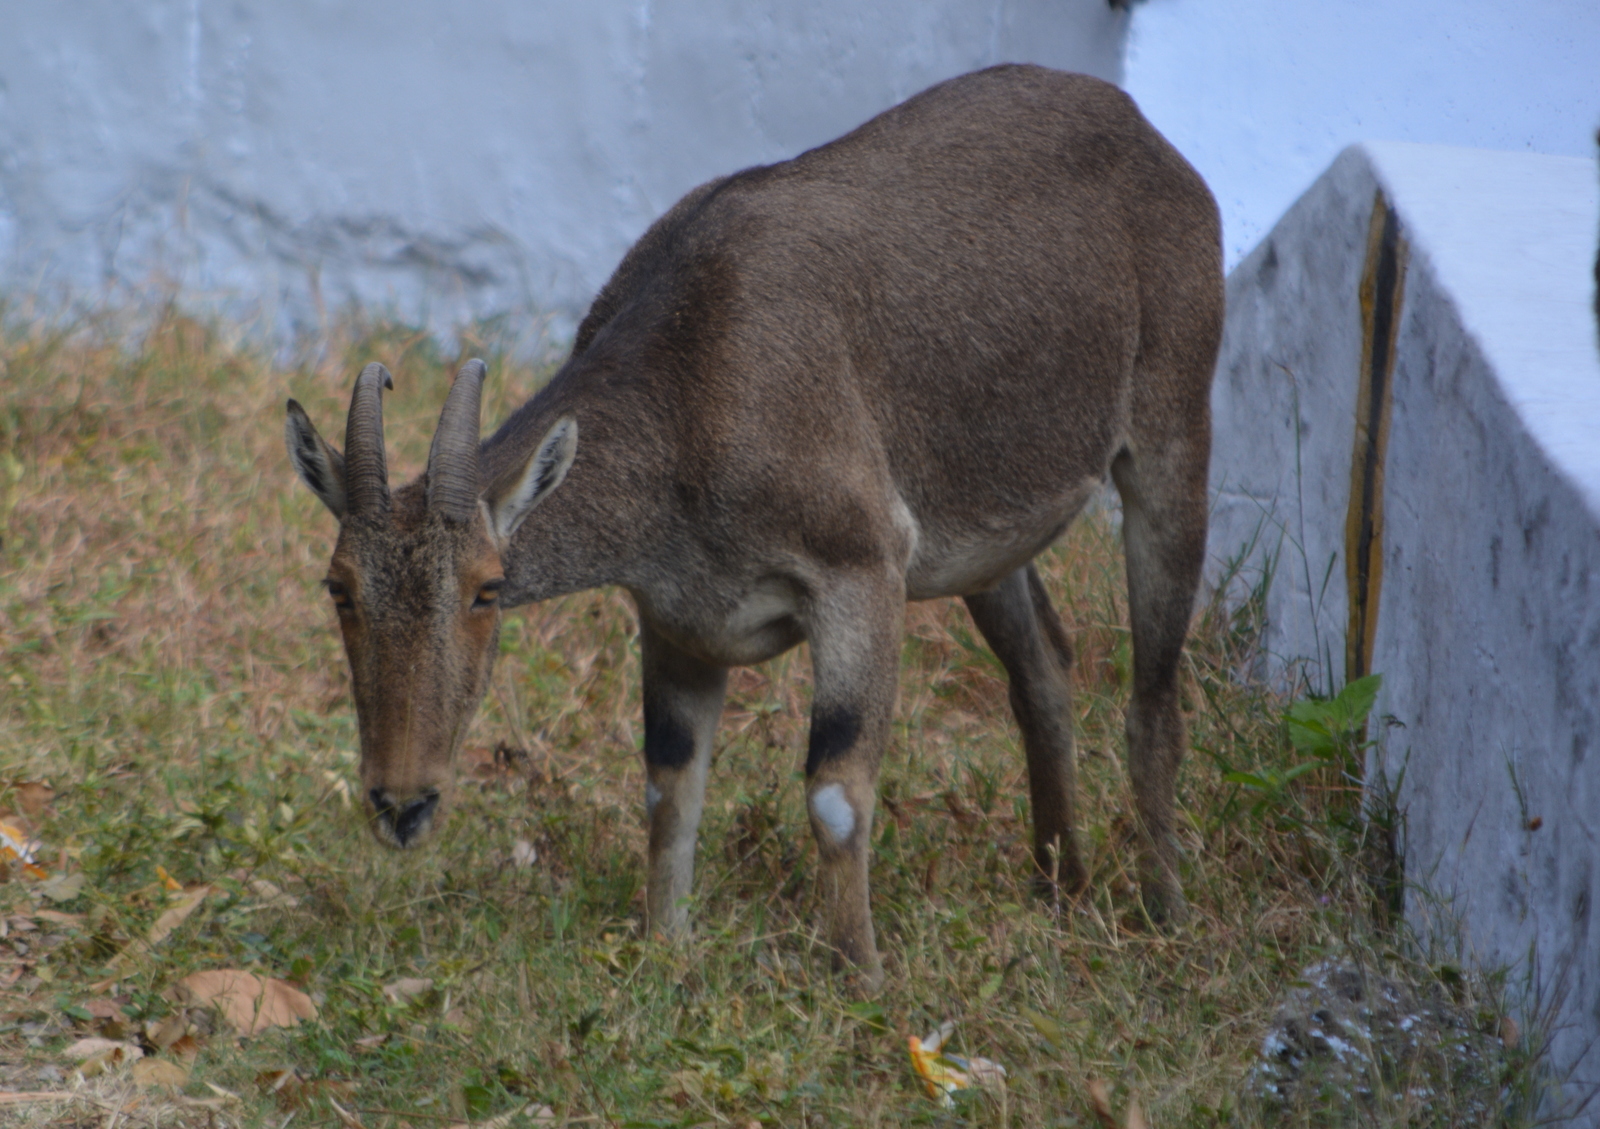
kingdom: Animalia
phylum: Chordata
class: Mammalia
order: Artiodactyla
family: Bovidae
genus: Hemitragus
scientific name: Hemitragus hylocrius
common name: Nilgiri tahr
